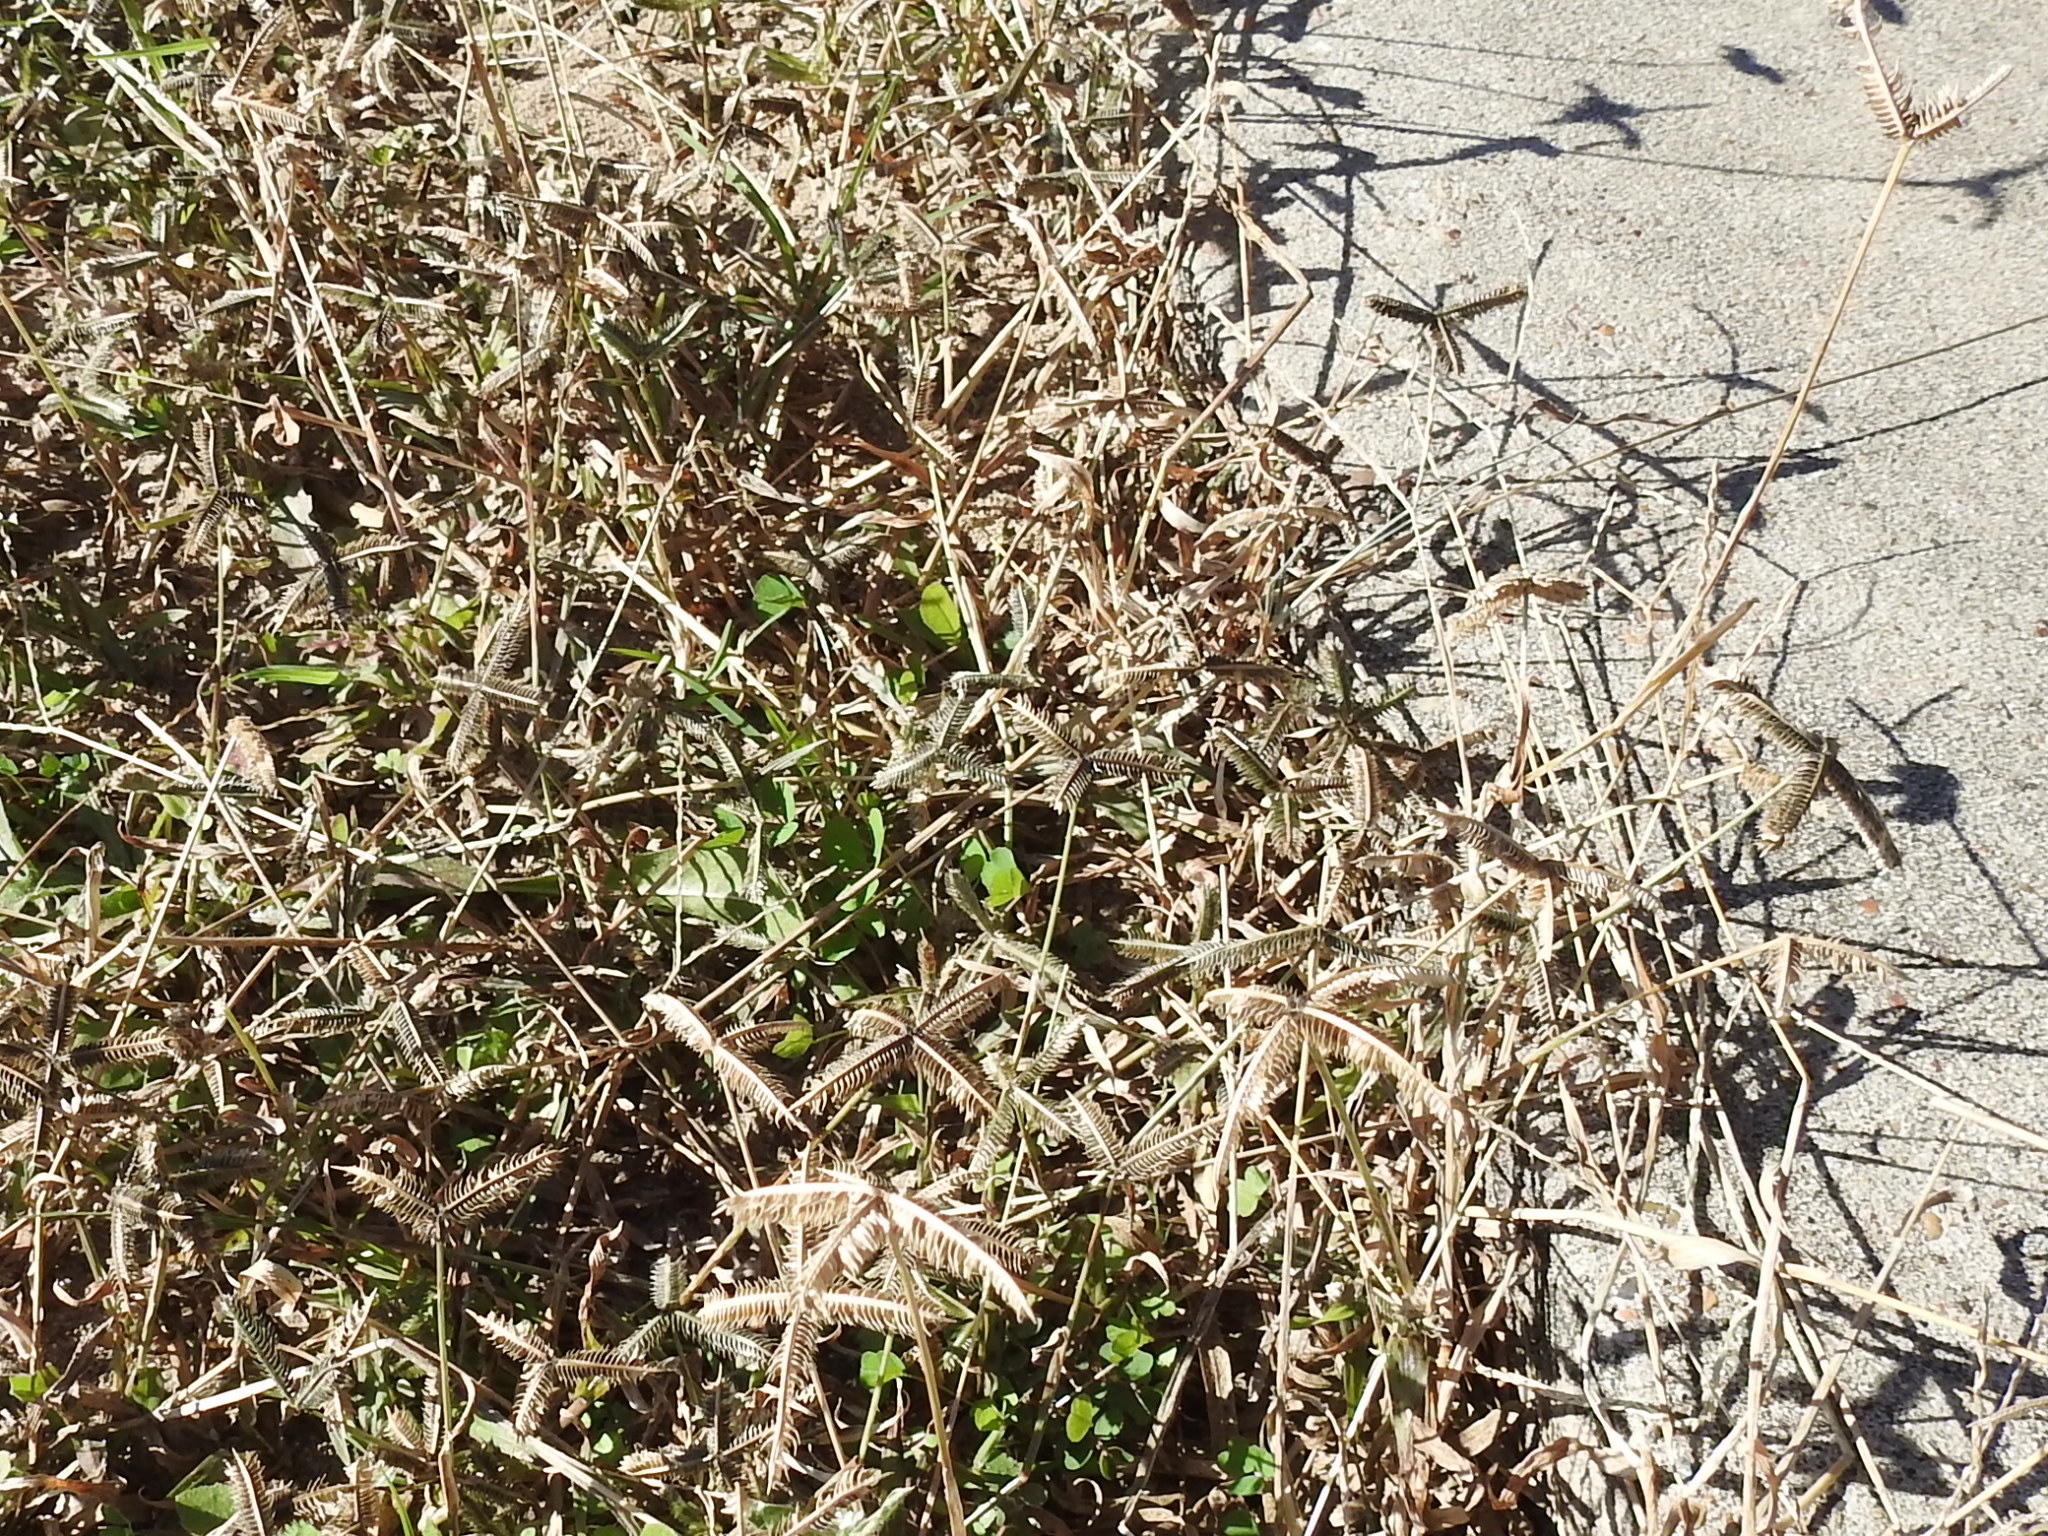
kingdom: Plantae
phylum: Tracheophyta
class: Liliopsida
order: Poales
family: Poaceae
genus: Dactyloctenium
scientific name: Dactyloctenium aegyptium
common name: Egyptian grass
